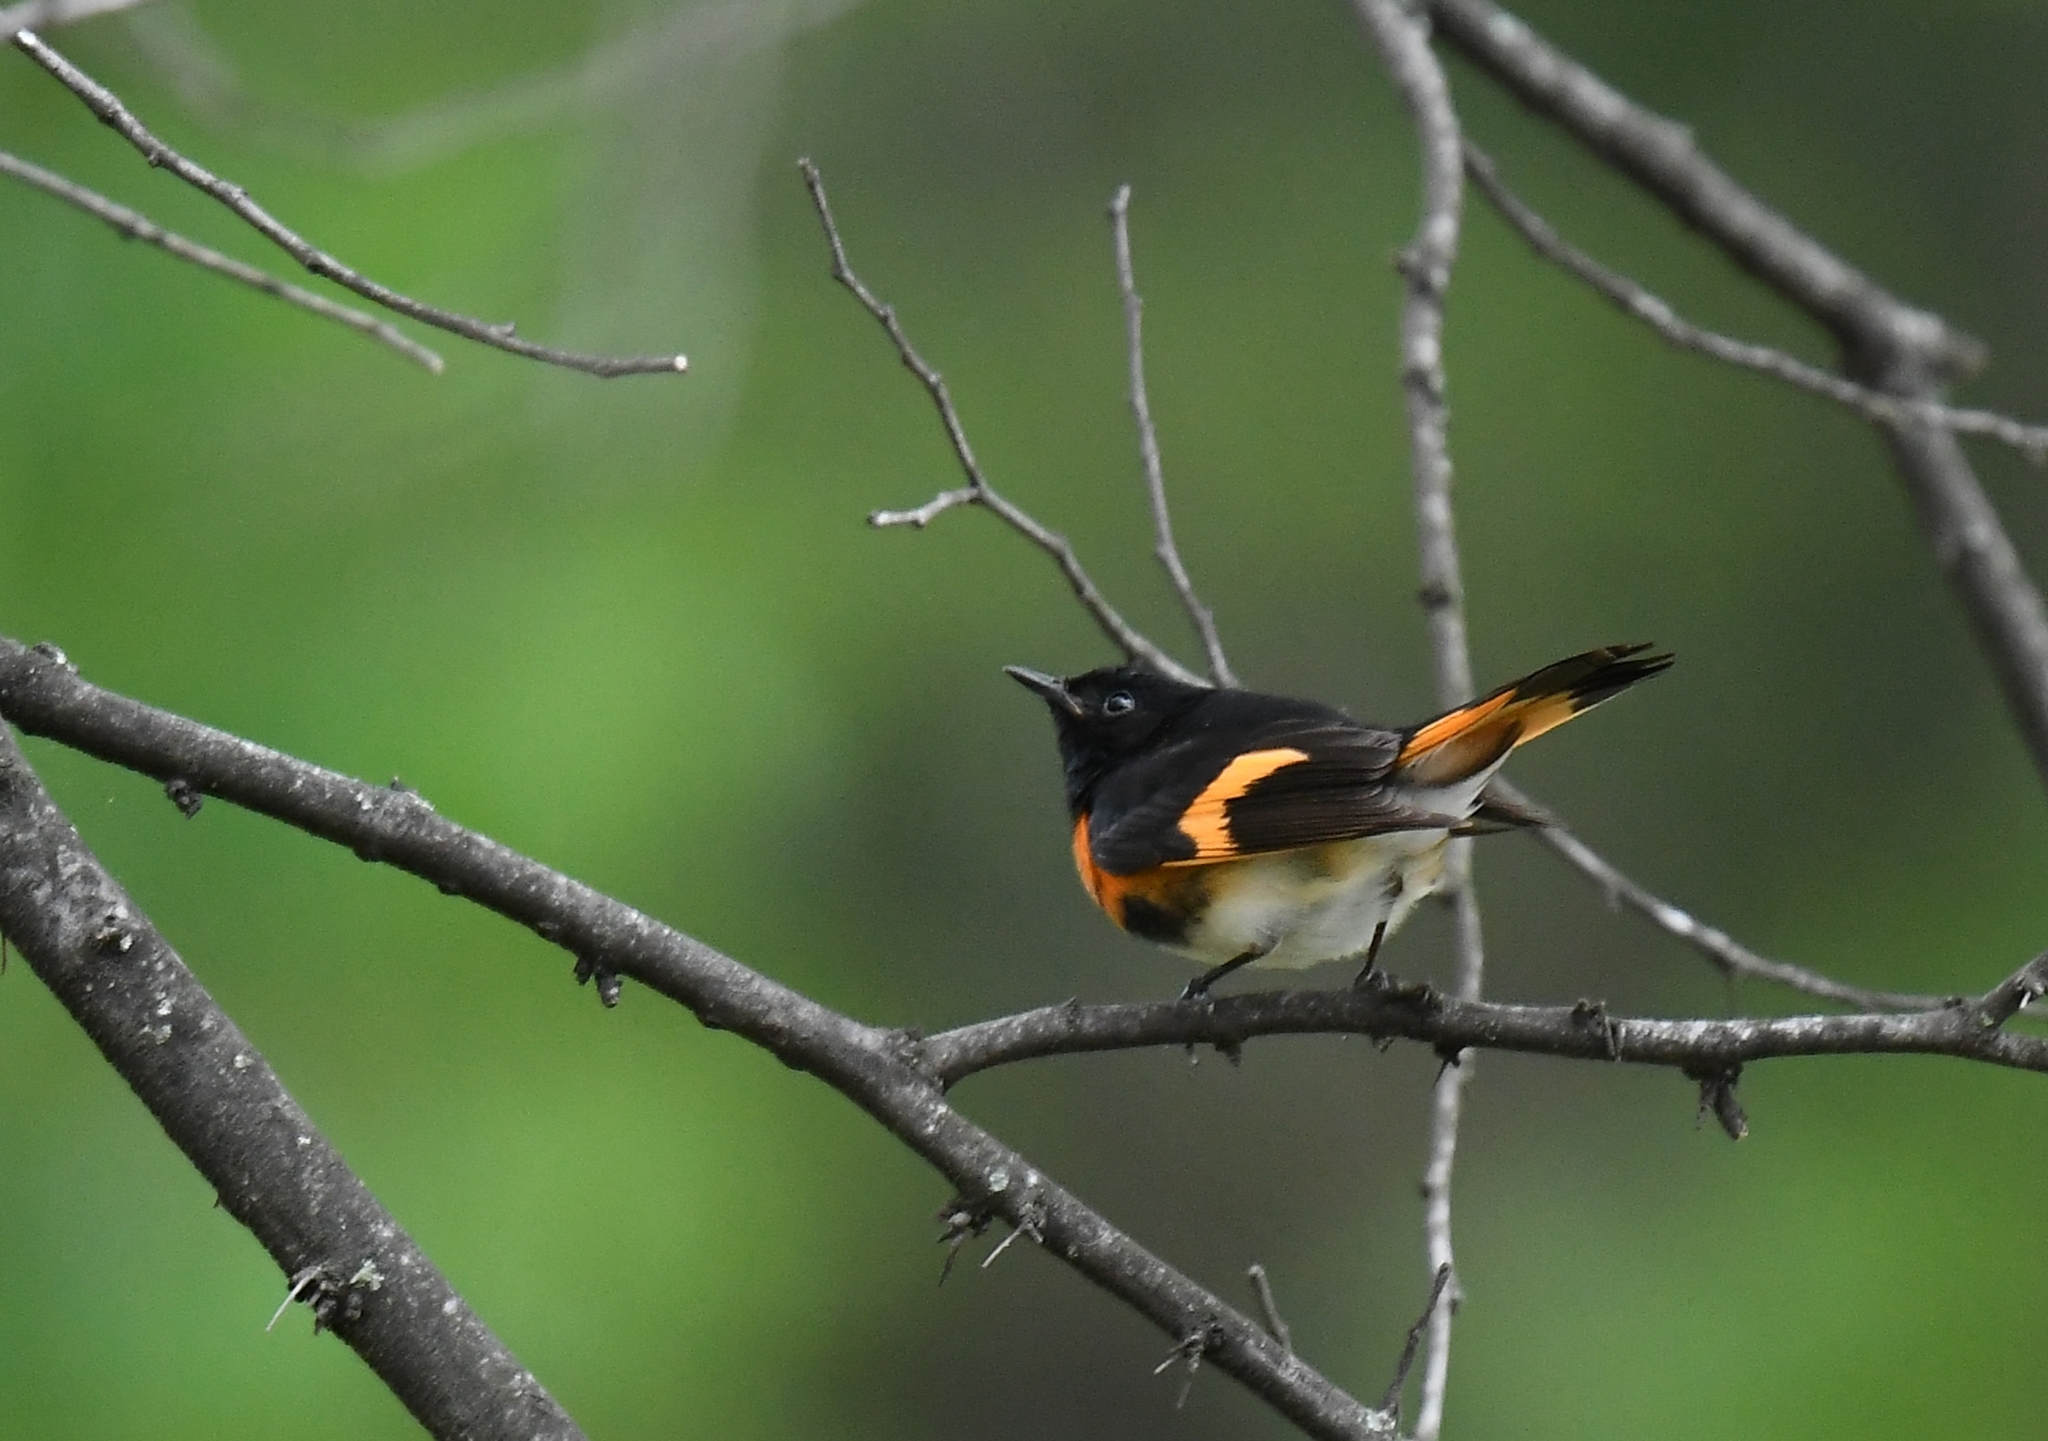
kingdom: Animalia
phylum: Chordata
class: Aves
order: Passeriformes
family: Parulidae
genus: Setophaga
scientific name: Setophaga ruticilla
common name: American redstart
